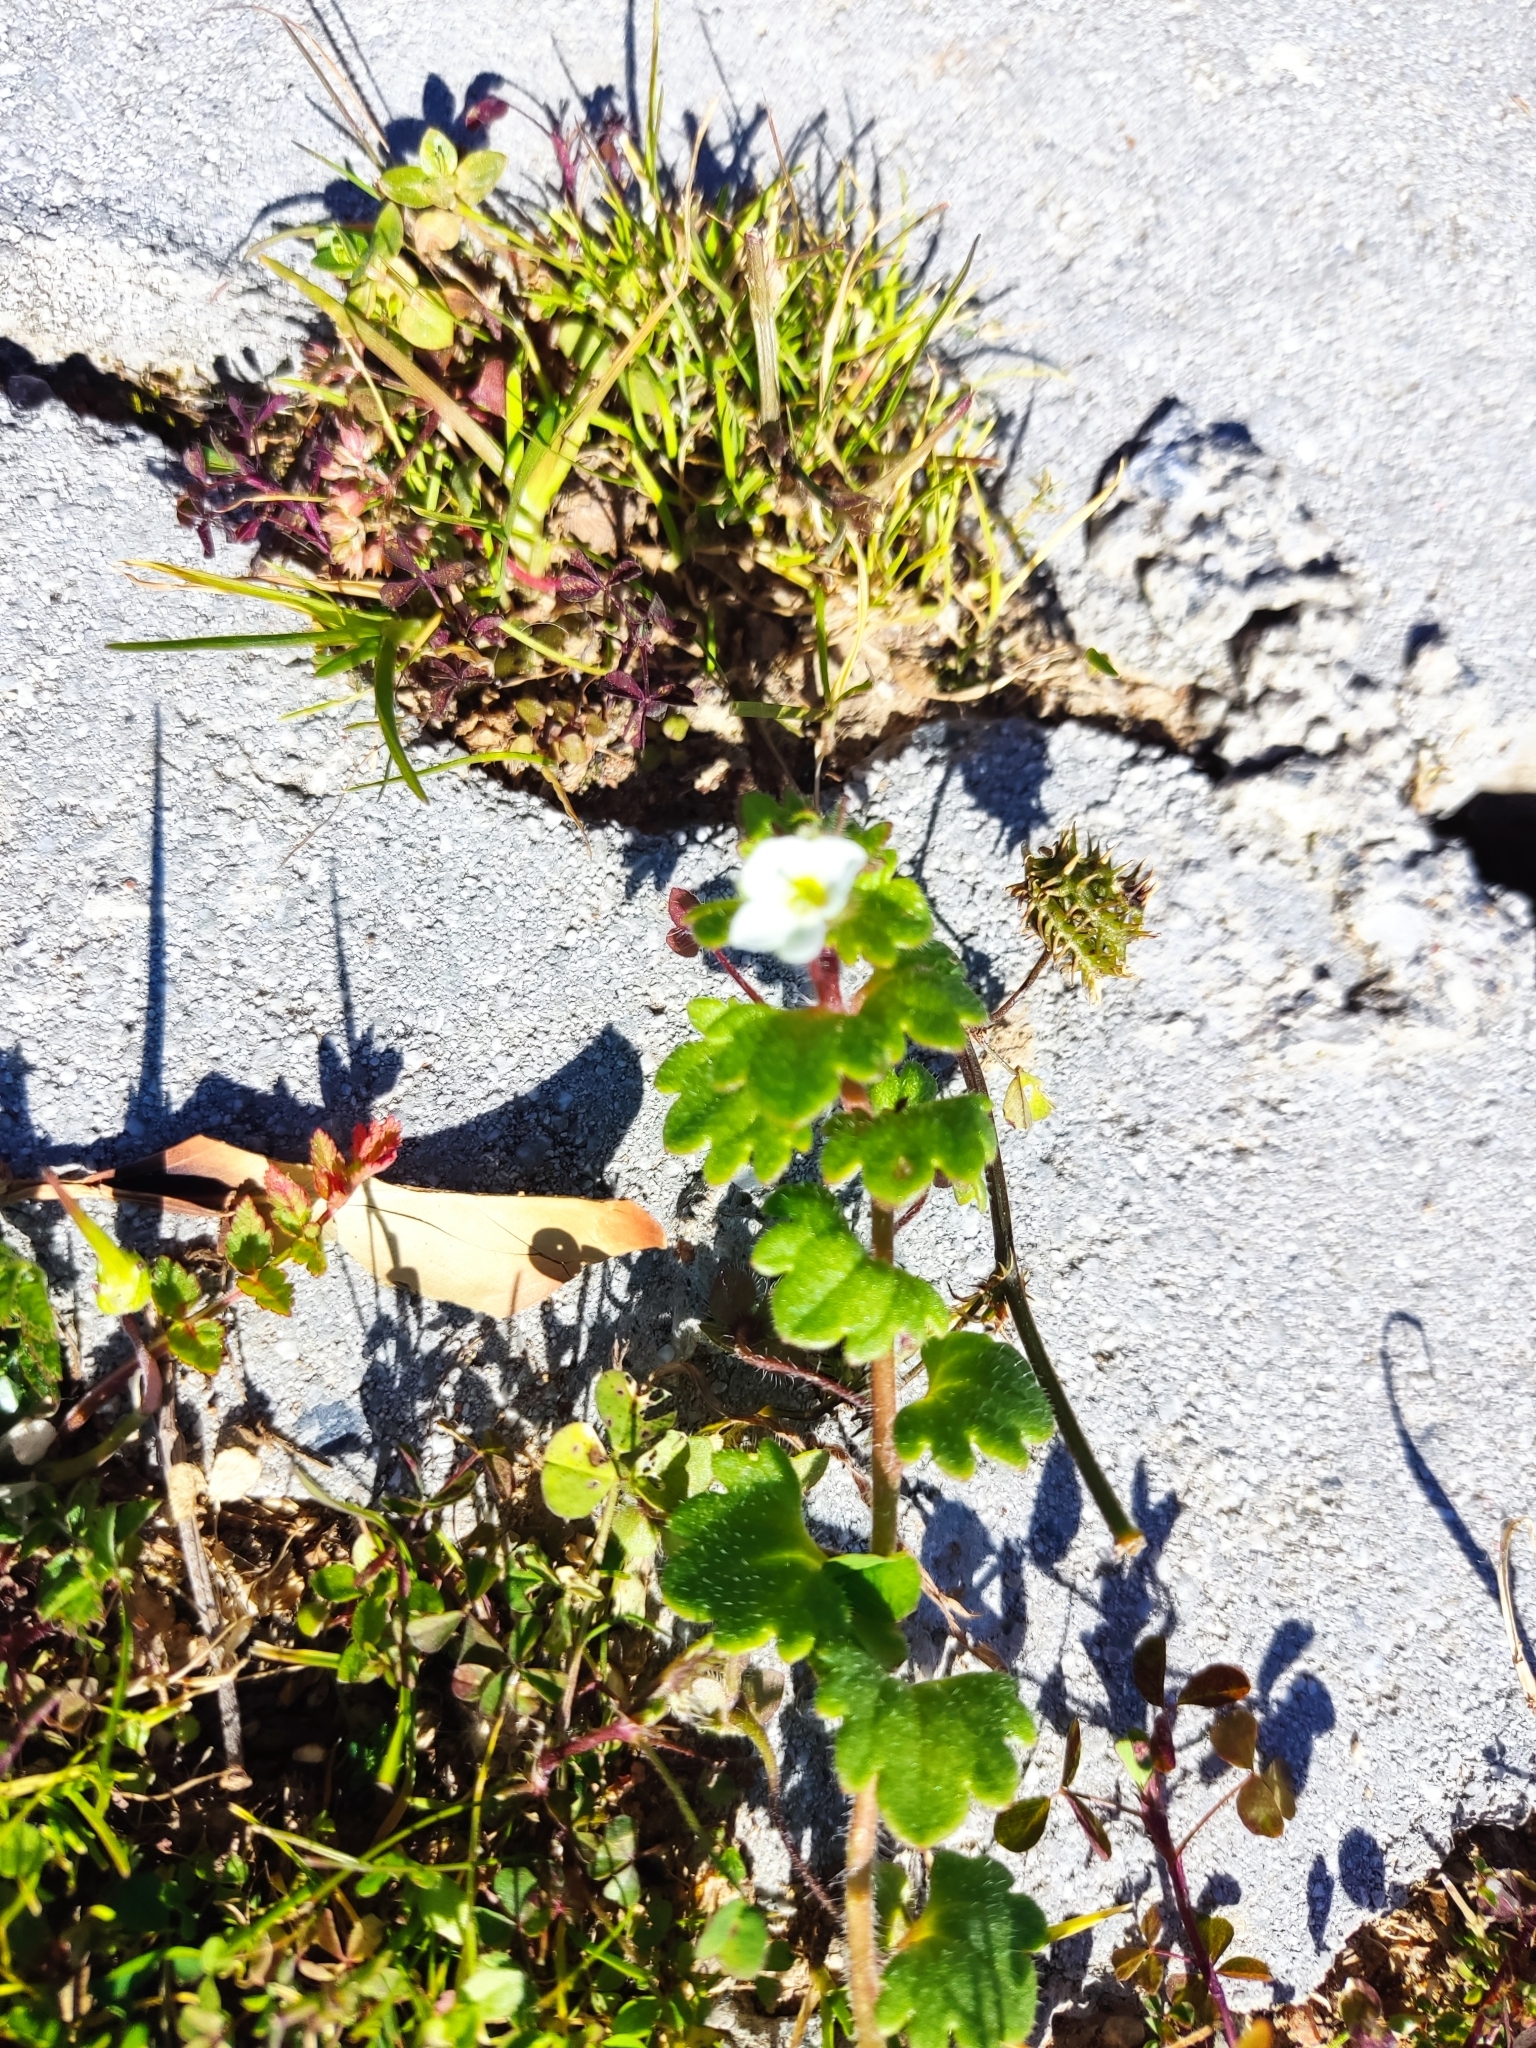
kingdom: Plantae
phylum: Tracheophyta
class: Magnoliopsida
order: Lamiales
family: Plantaginaceae
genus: Veronica
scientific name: Veronica cymbalaria
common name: Pale speedwell
